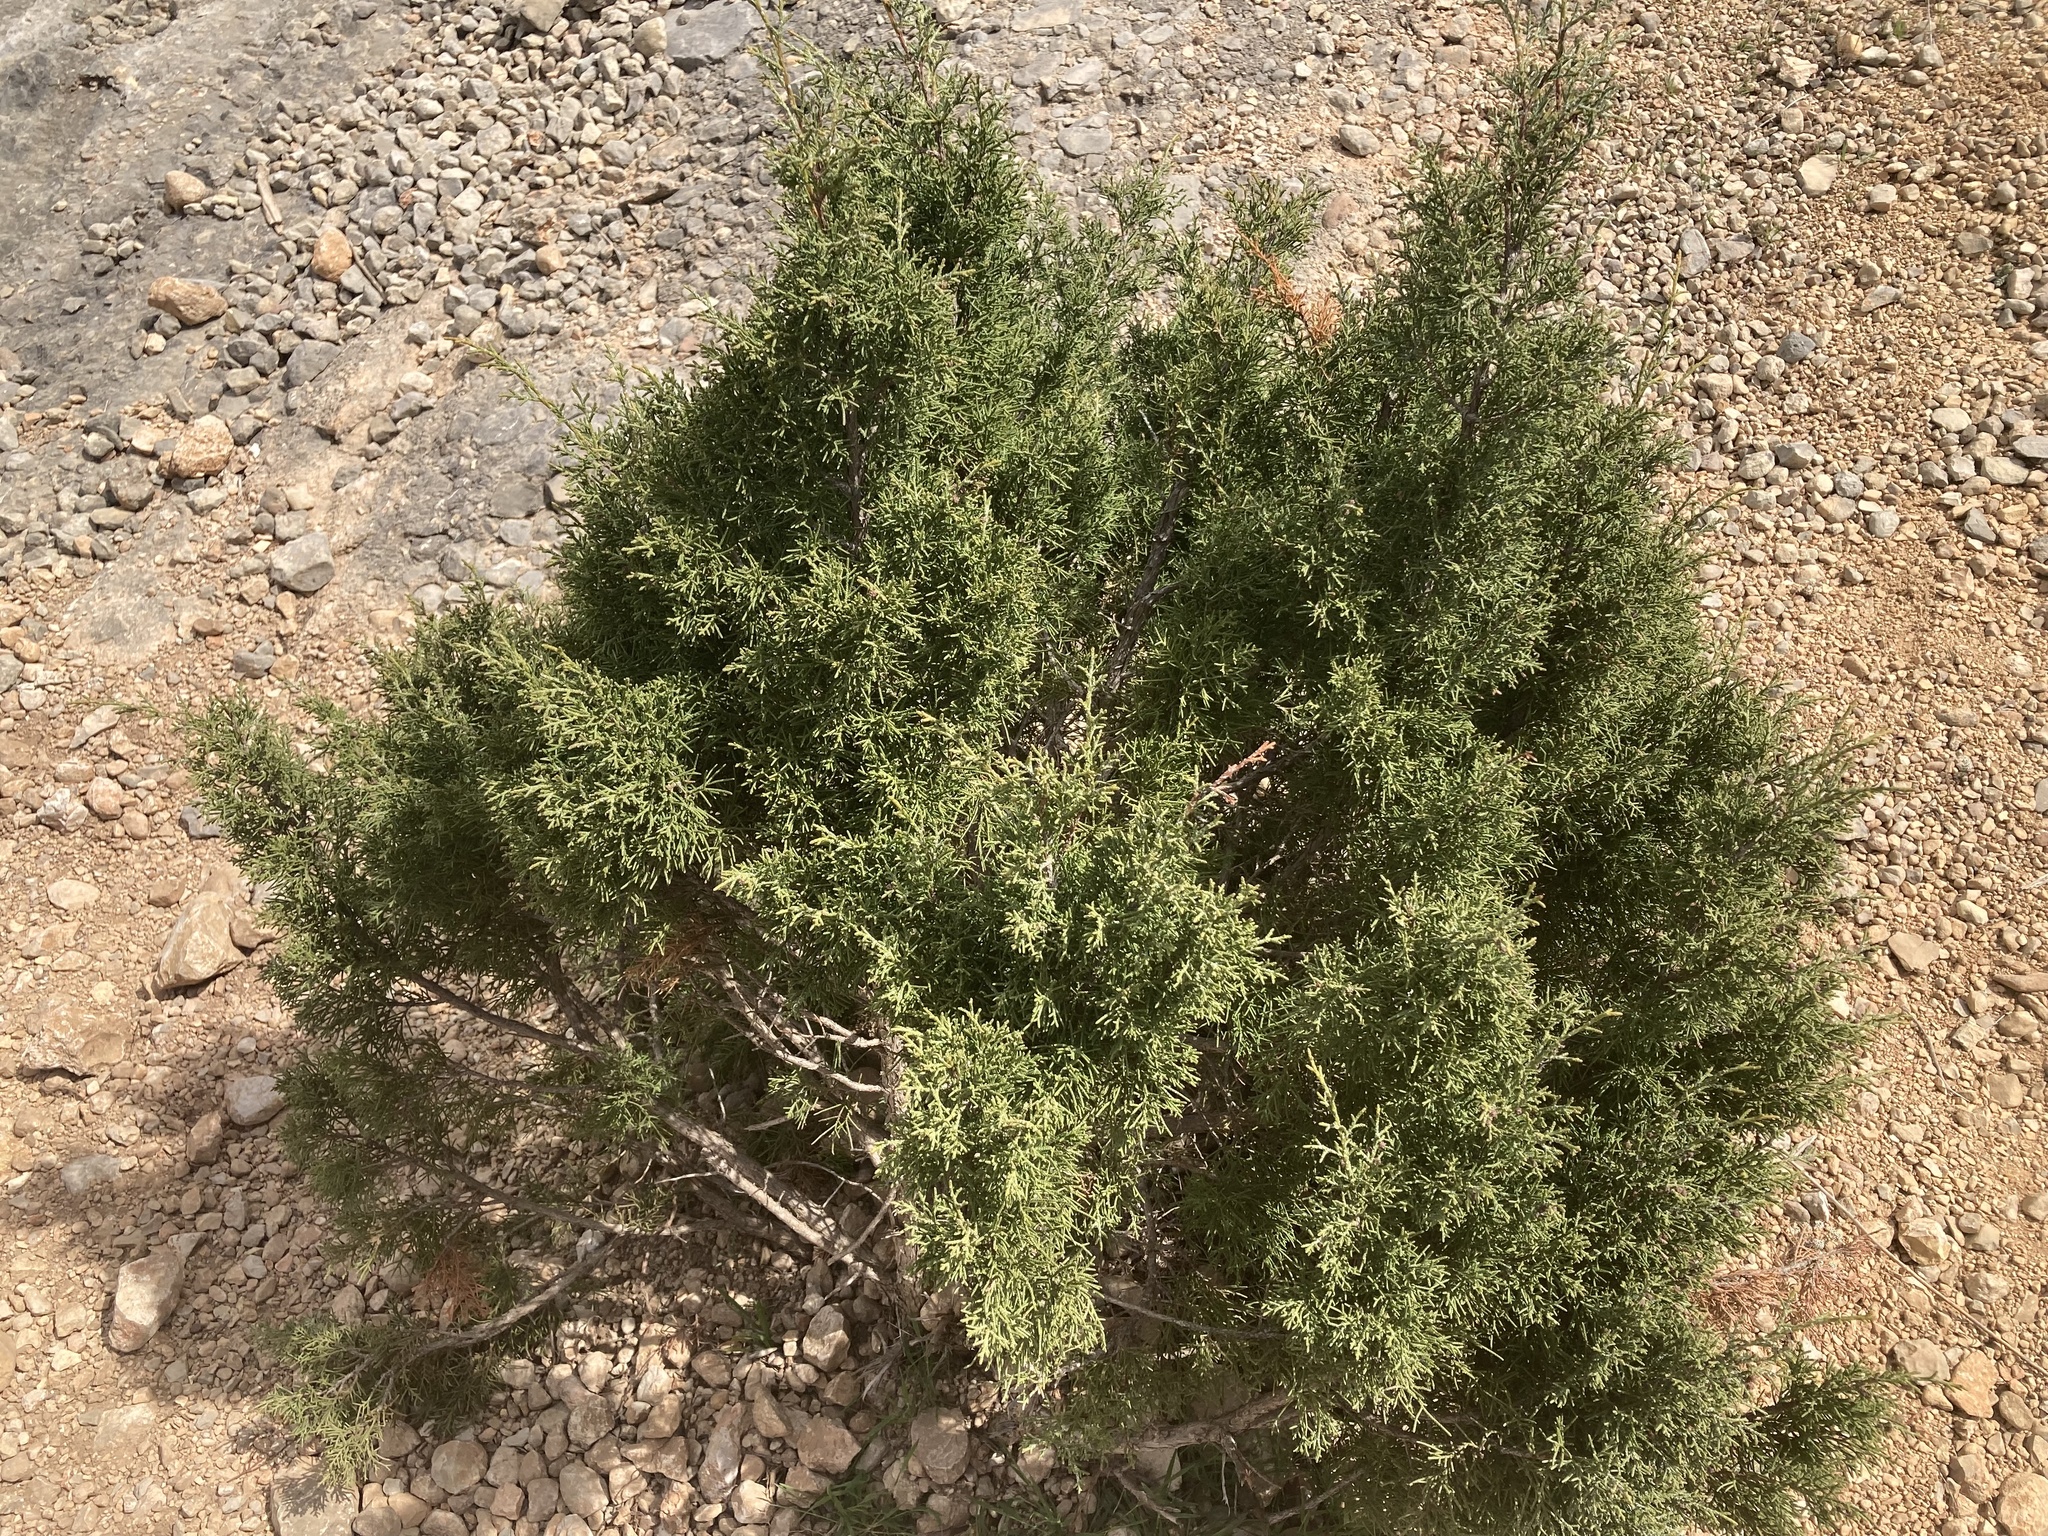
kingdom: Plantae
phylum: Tracheophyta
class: Pinopsida
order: Pinales
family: Cupressaceae
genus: Juniperus
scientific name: Juniperus phoenicea
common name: Phoenician juniper
